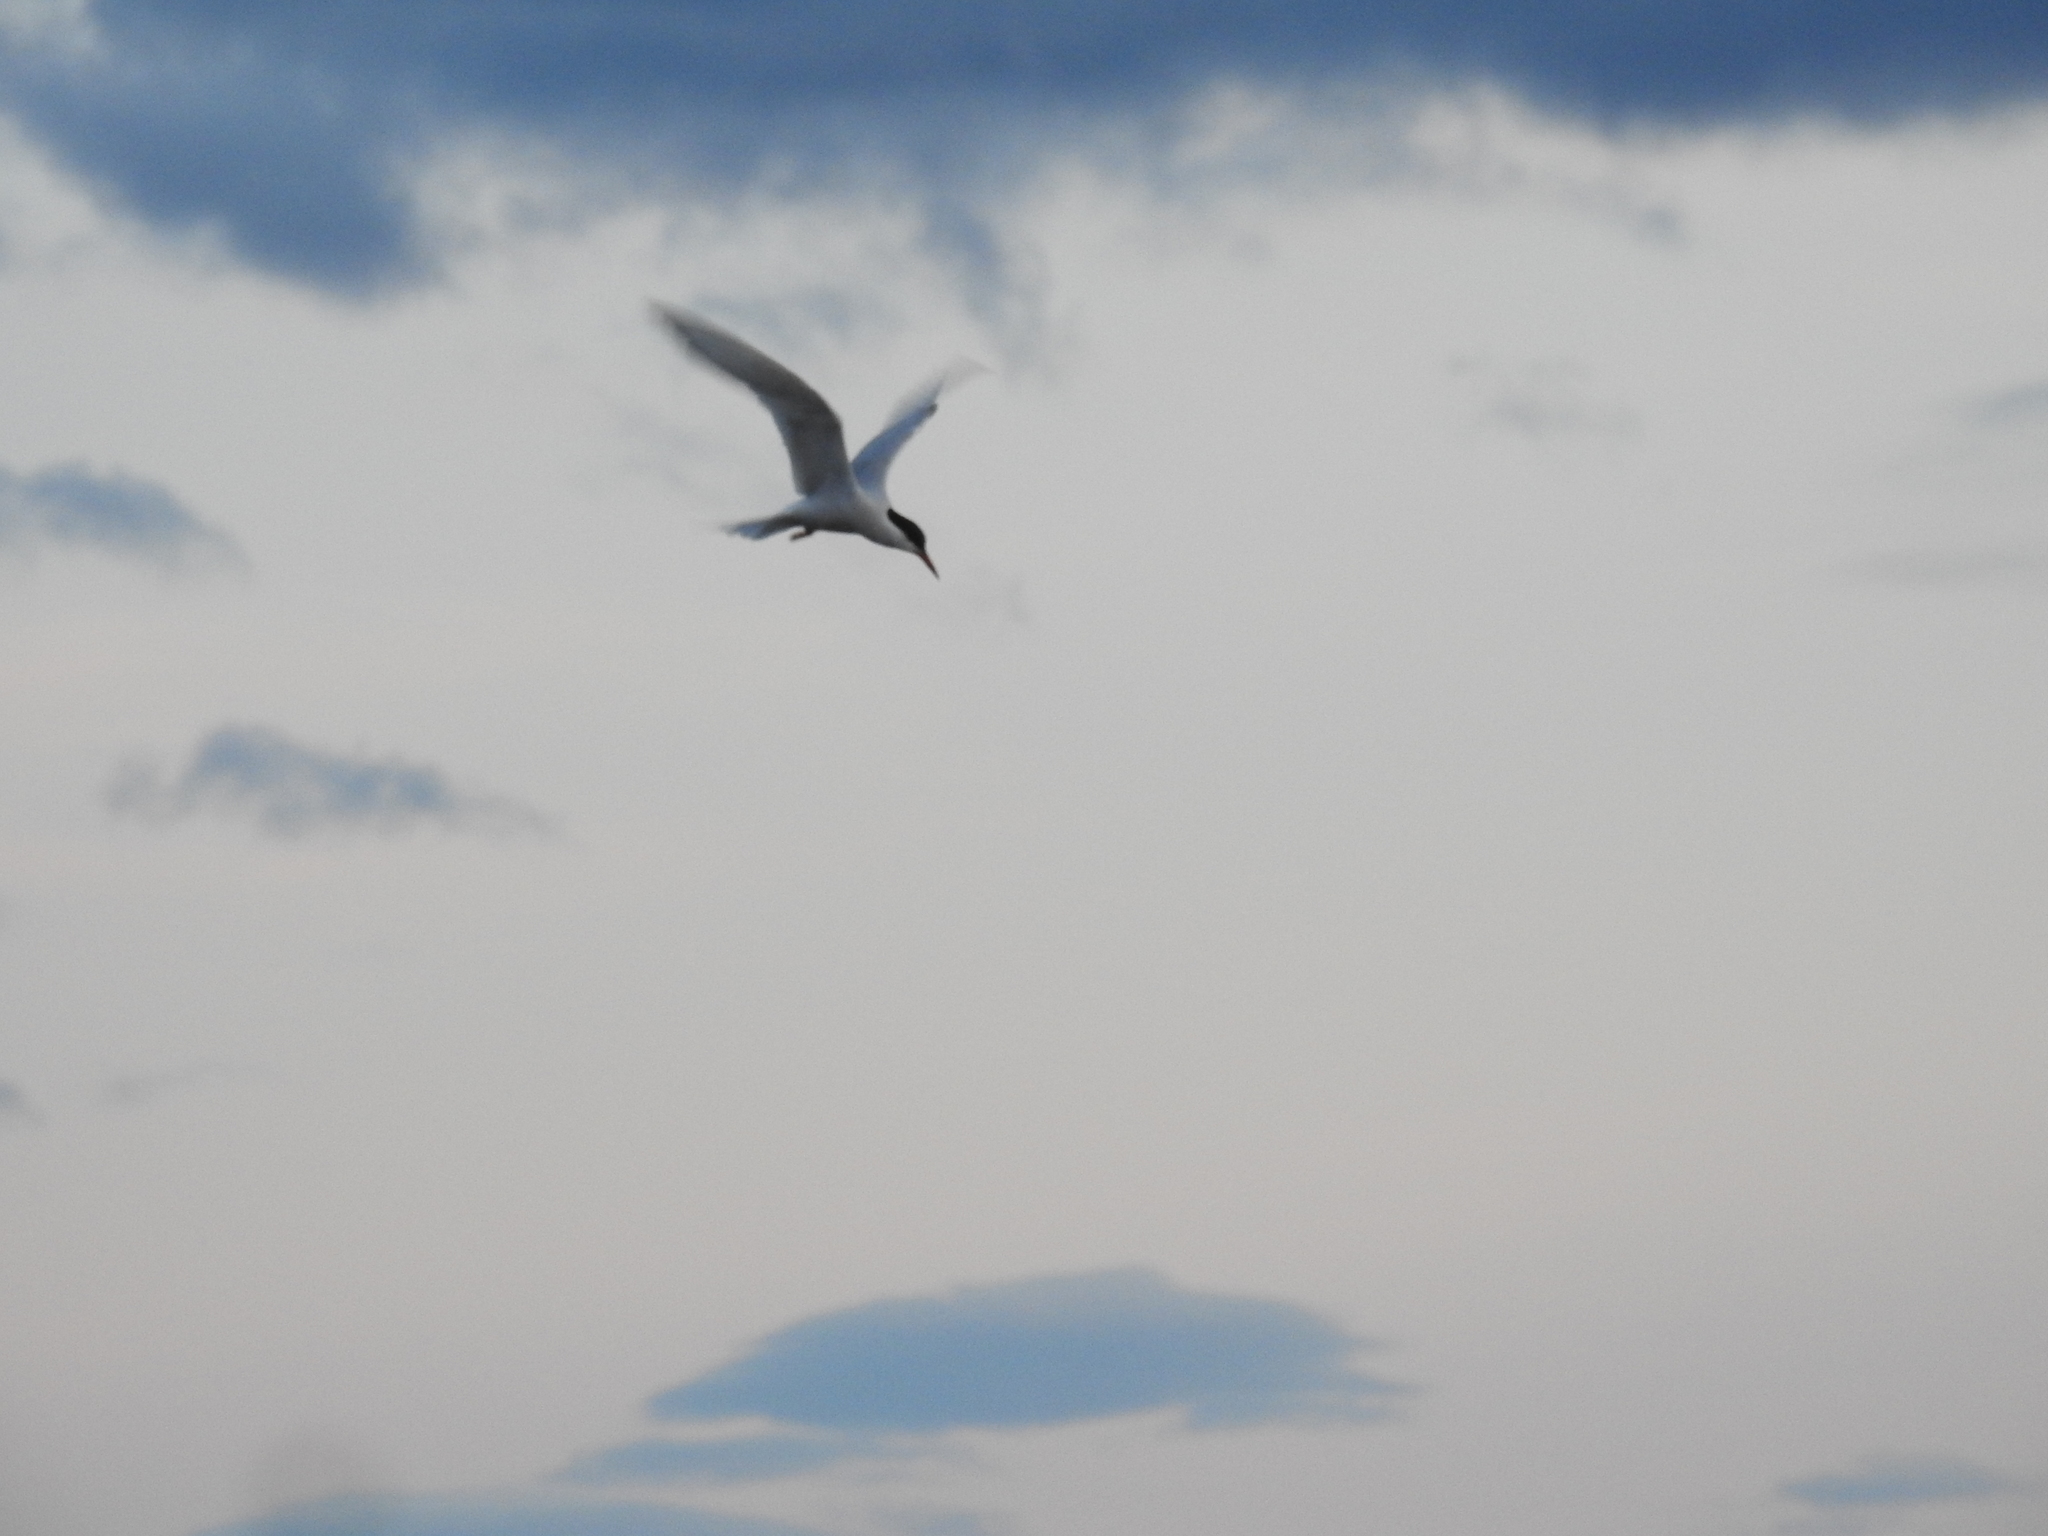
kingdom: Animalia
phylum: Chordata
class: Aves
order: Charadriiformes
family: Laridae
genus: Sterna
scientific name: Sterna hirundinacea
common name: South american tern
